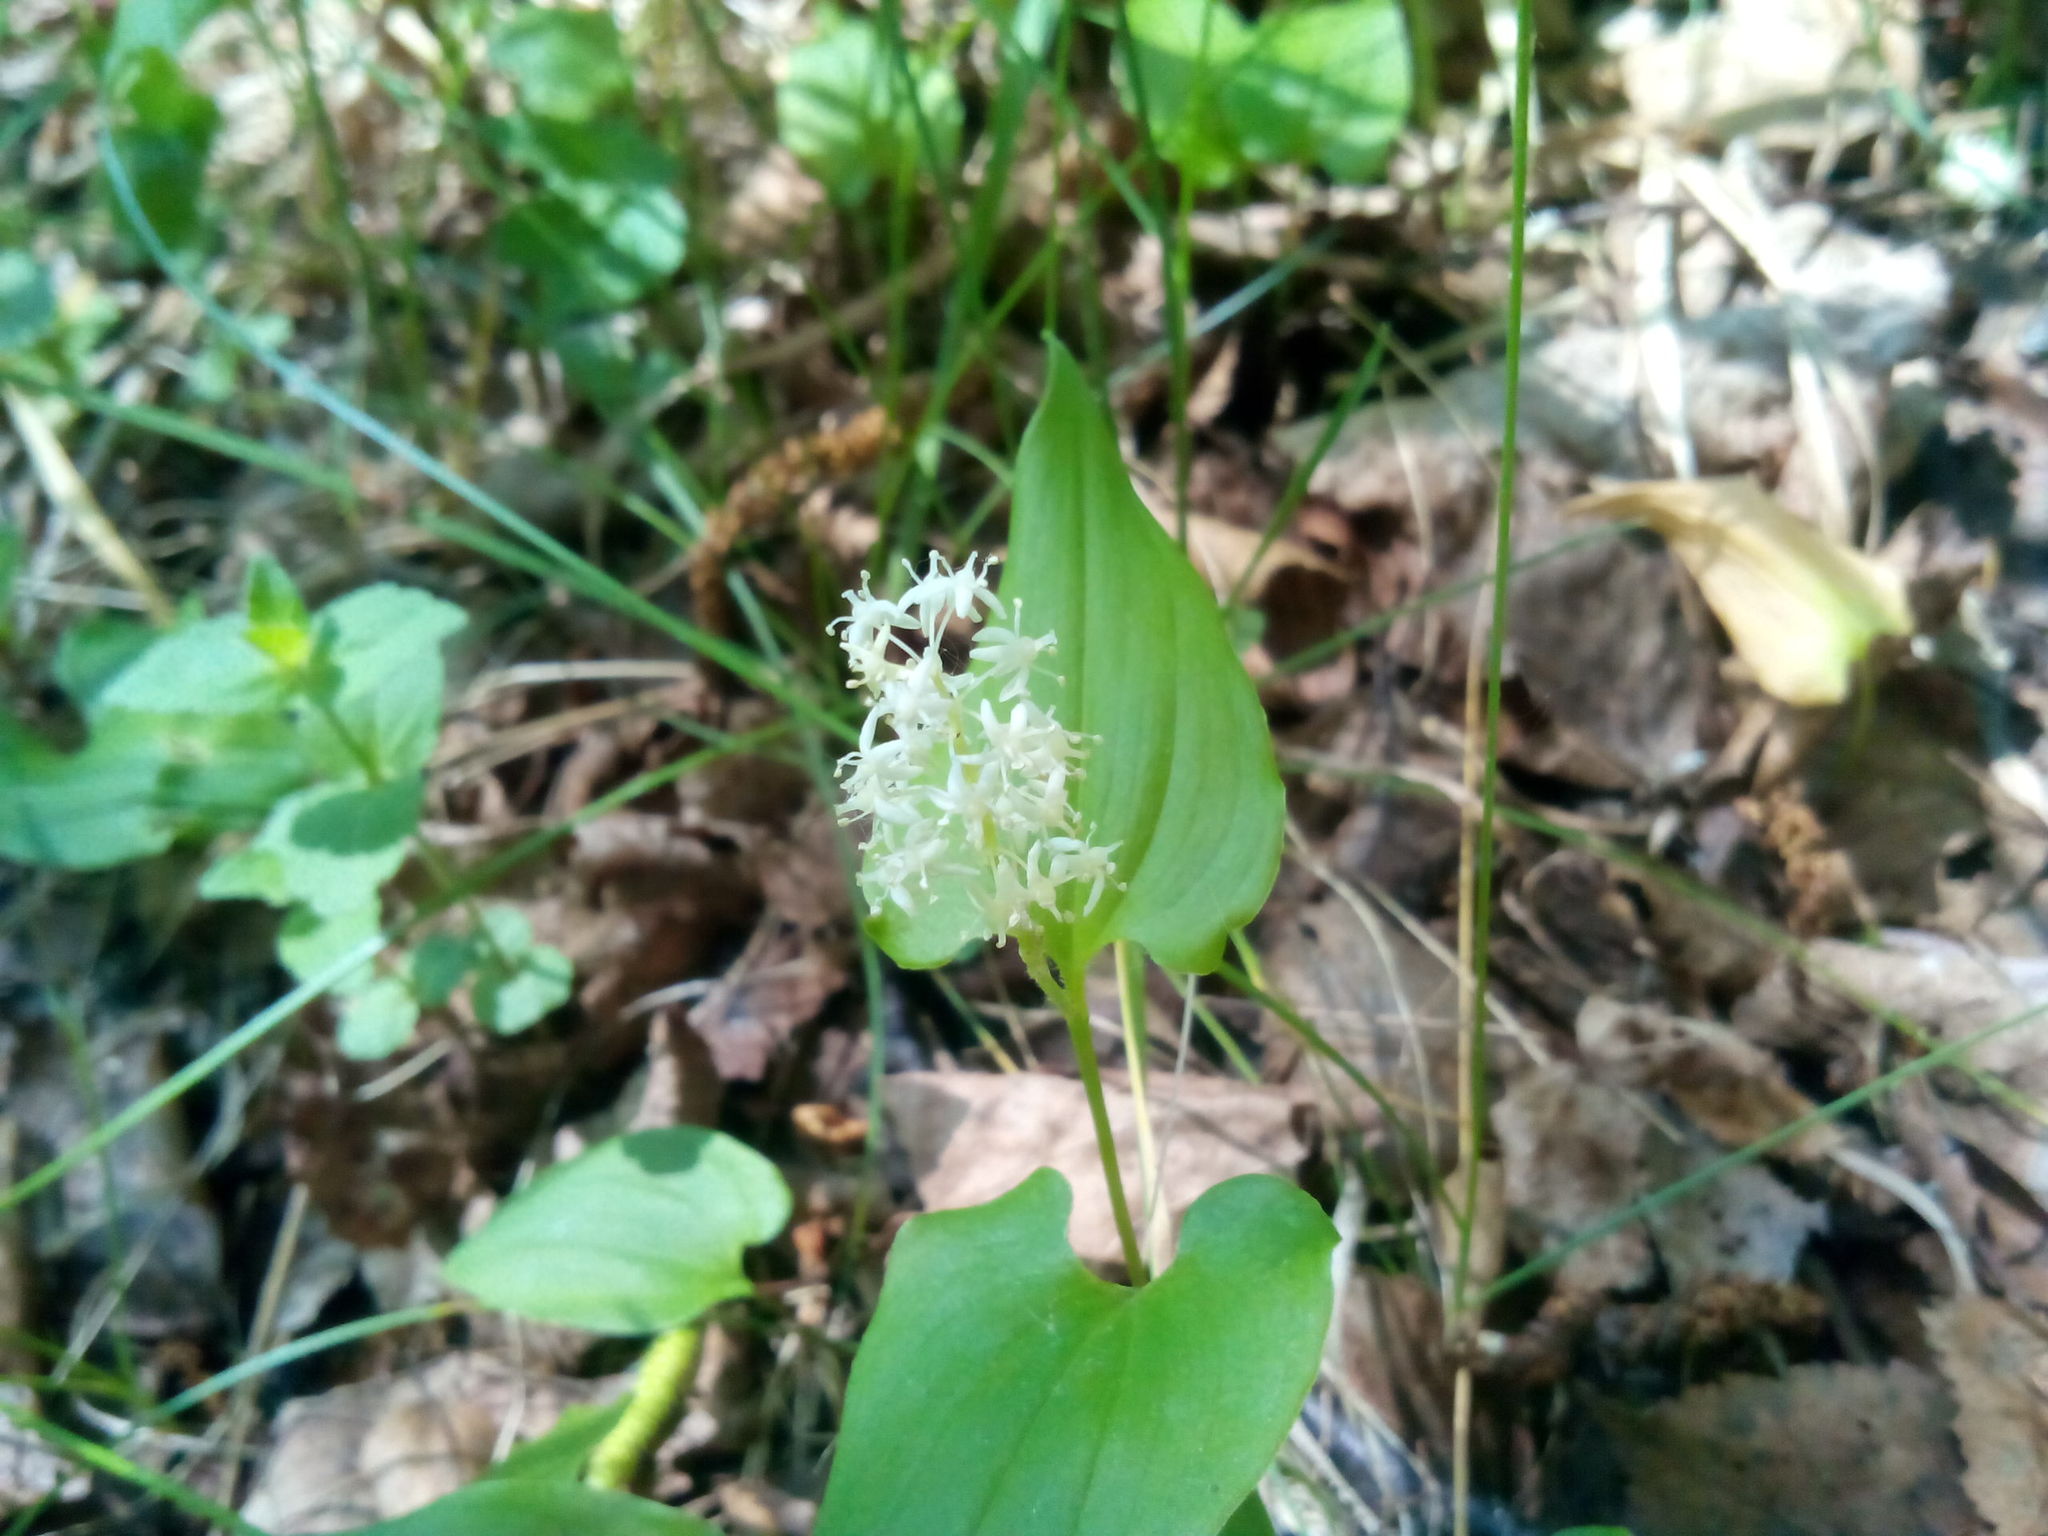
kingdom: Plantae
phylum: Tracheophyta
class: Liliopsida
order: Asparagales
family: Asparagaceae
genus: Maianthemum
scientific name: Maianthemum bifolium
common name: May lily
